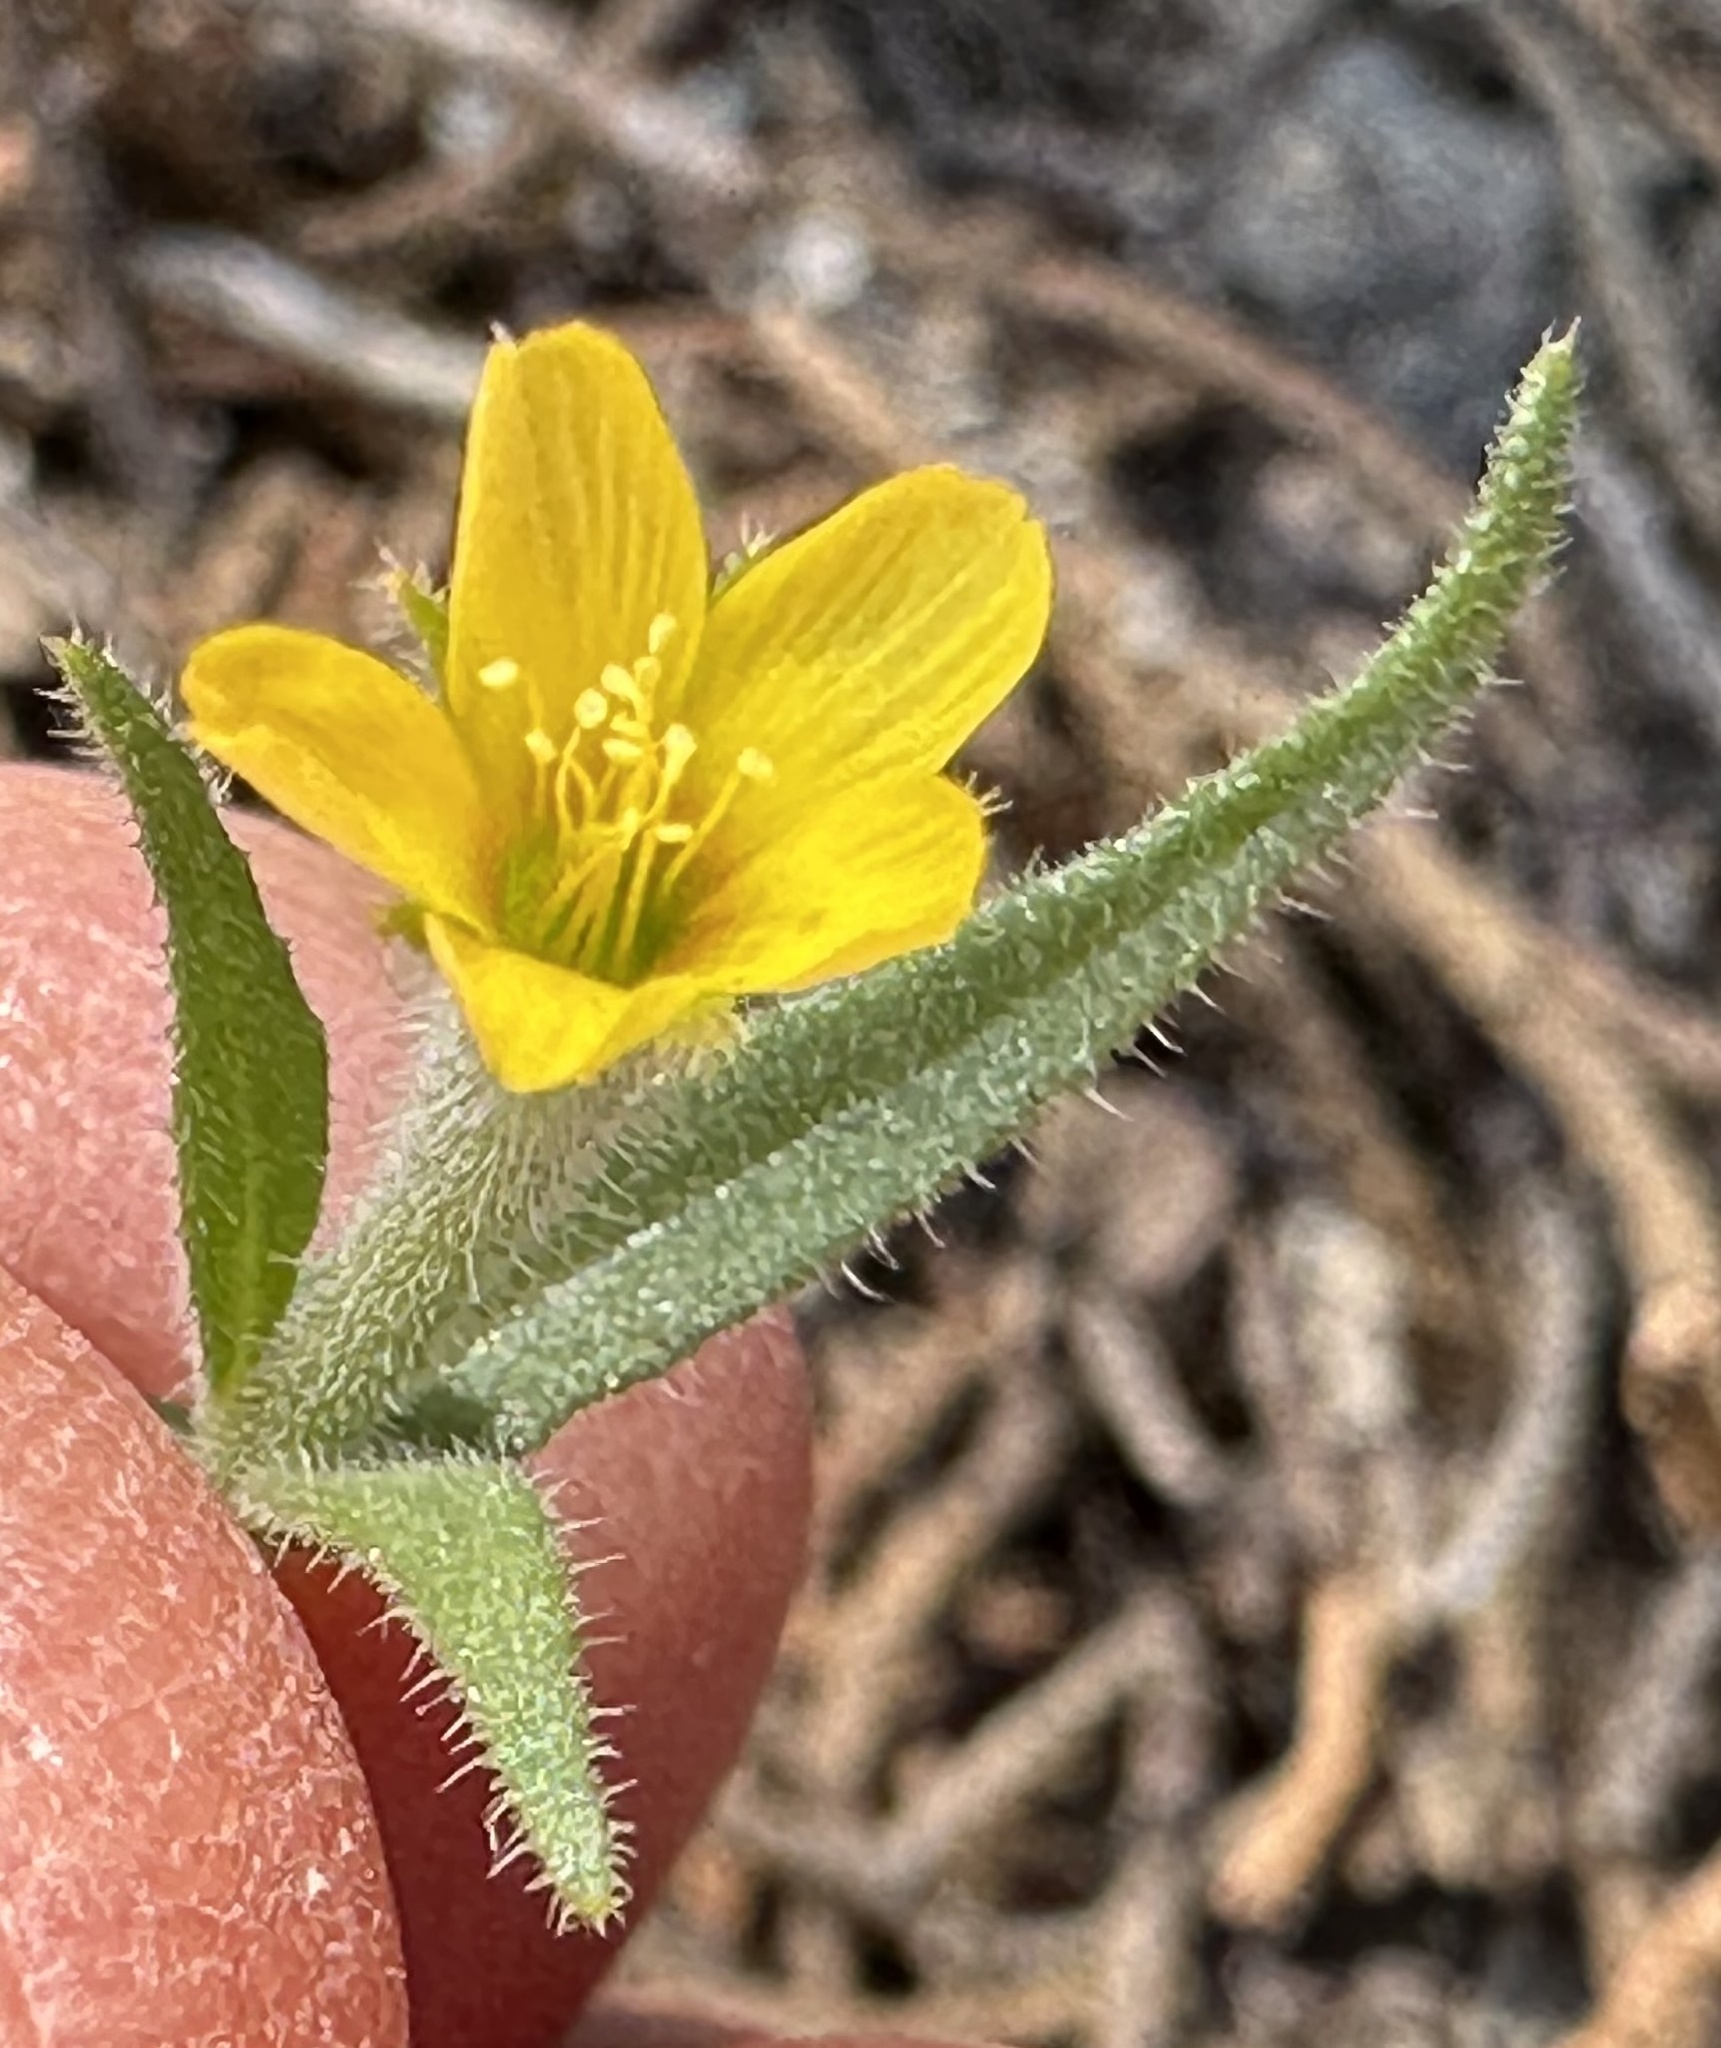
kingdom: Plantae
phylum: Tracheophyta
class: Magnoliopsida
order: Cornales
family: Loasaceae
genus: Mentzelia
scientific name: Mentzelia albicaulis
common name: White-stem blazingstar
